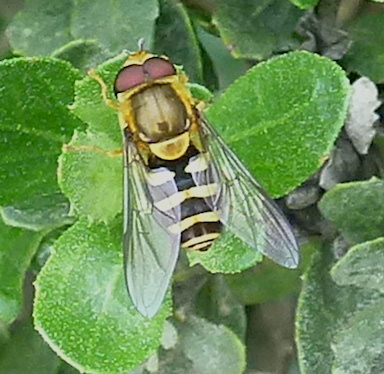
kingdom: Animalia
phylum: Arthropoda
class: Insecta
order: Diptera
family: Syrphidae
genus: Syrphus
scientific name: Syrphus
